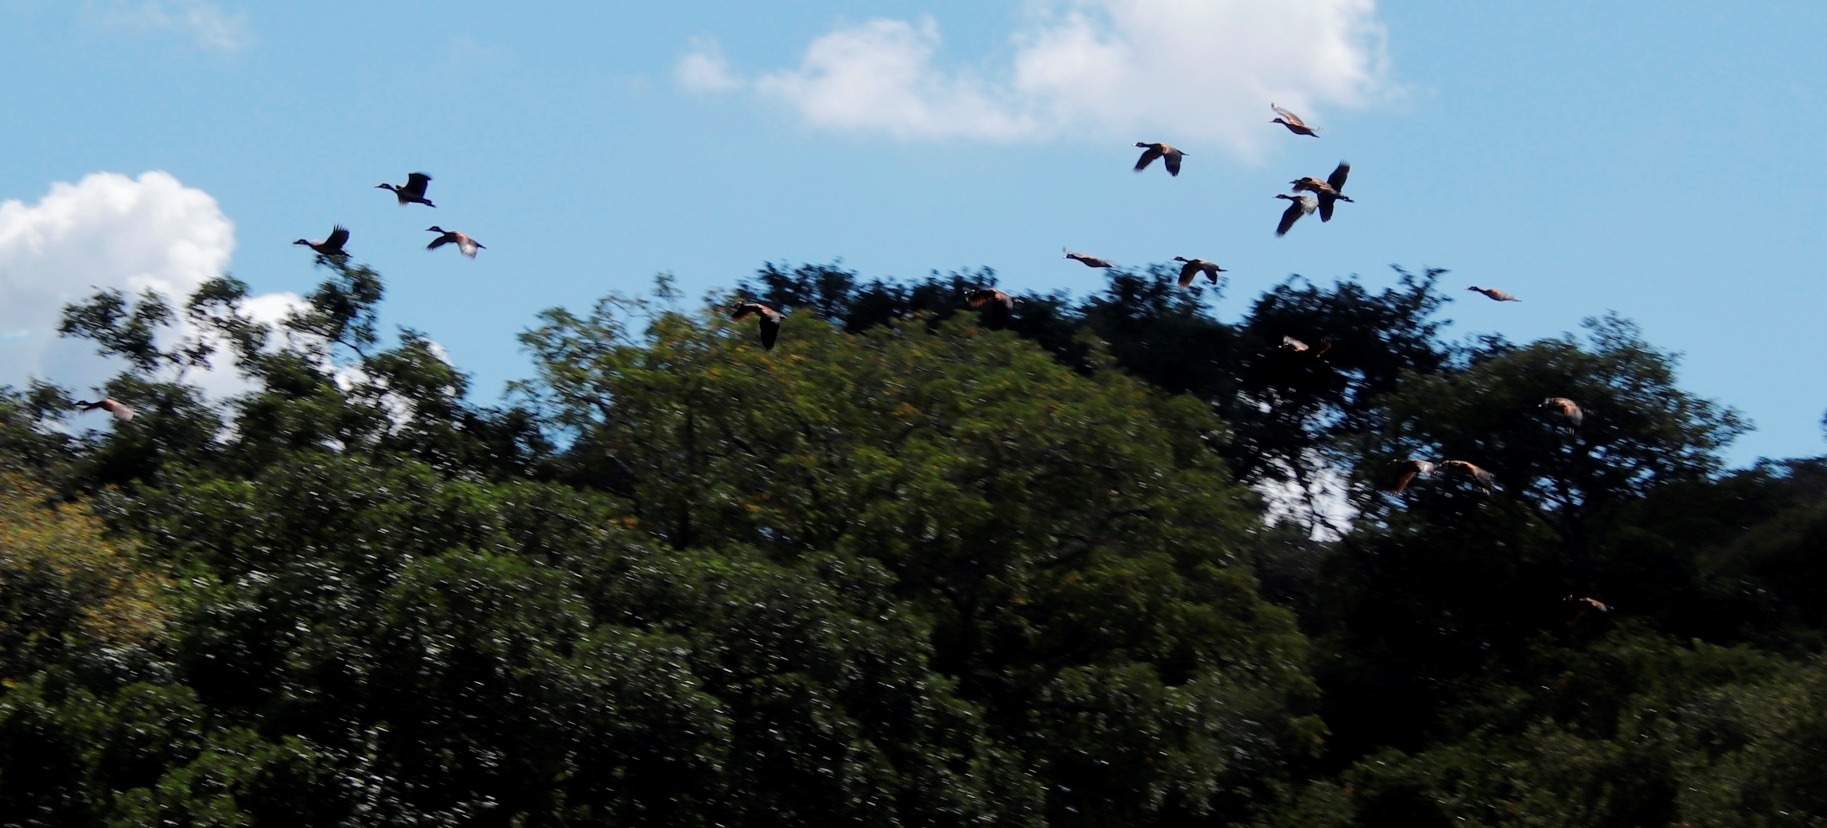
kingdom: Animalia
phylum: Chordata
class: Aves
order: Anseriformes
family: Anatidae
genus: Dendrocygna
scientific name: Dendrocygna viduata
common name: White-faced whistling duck
